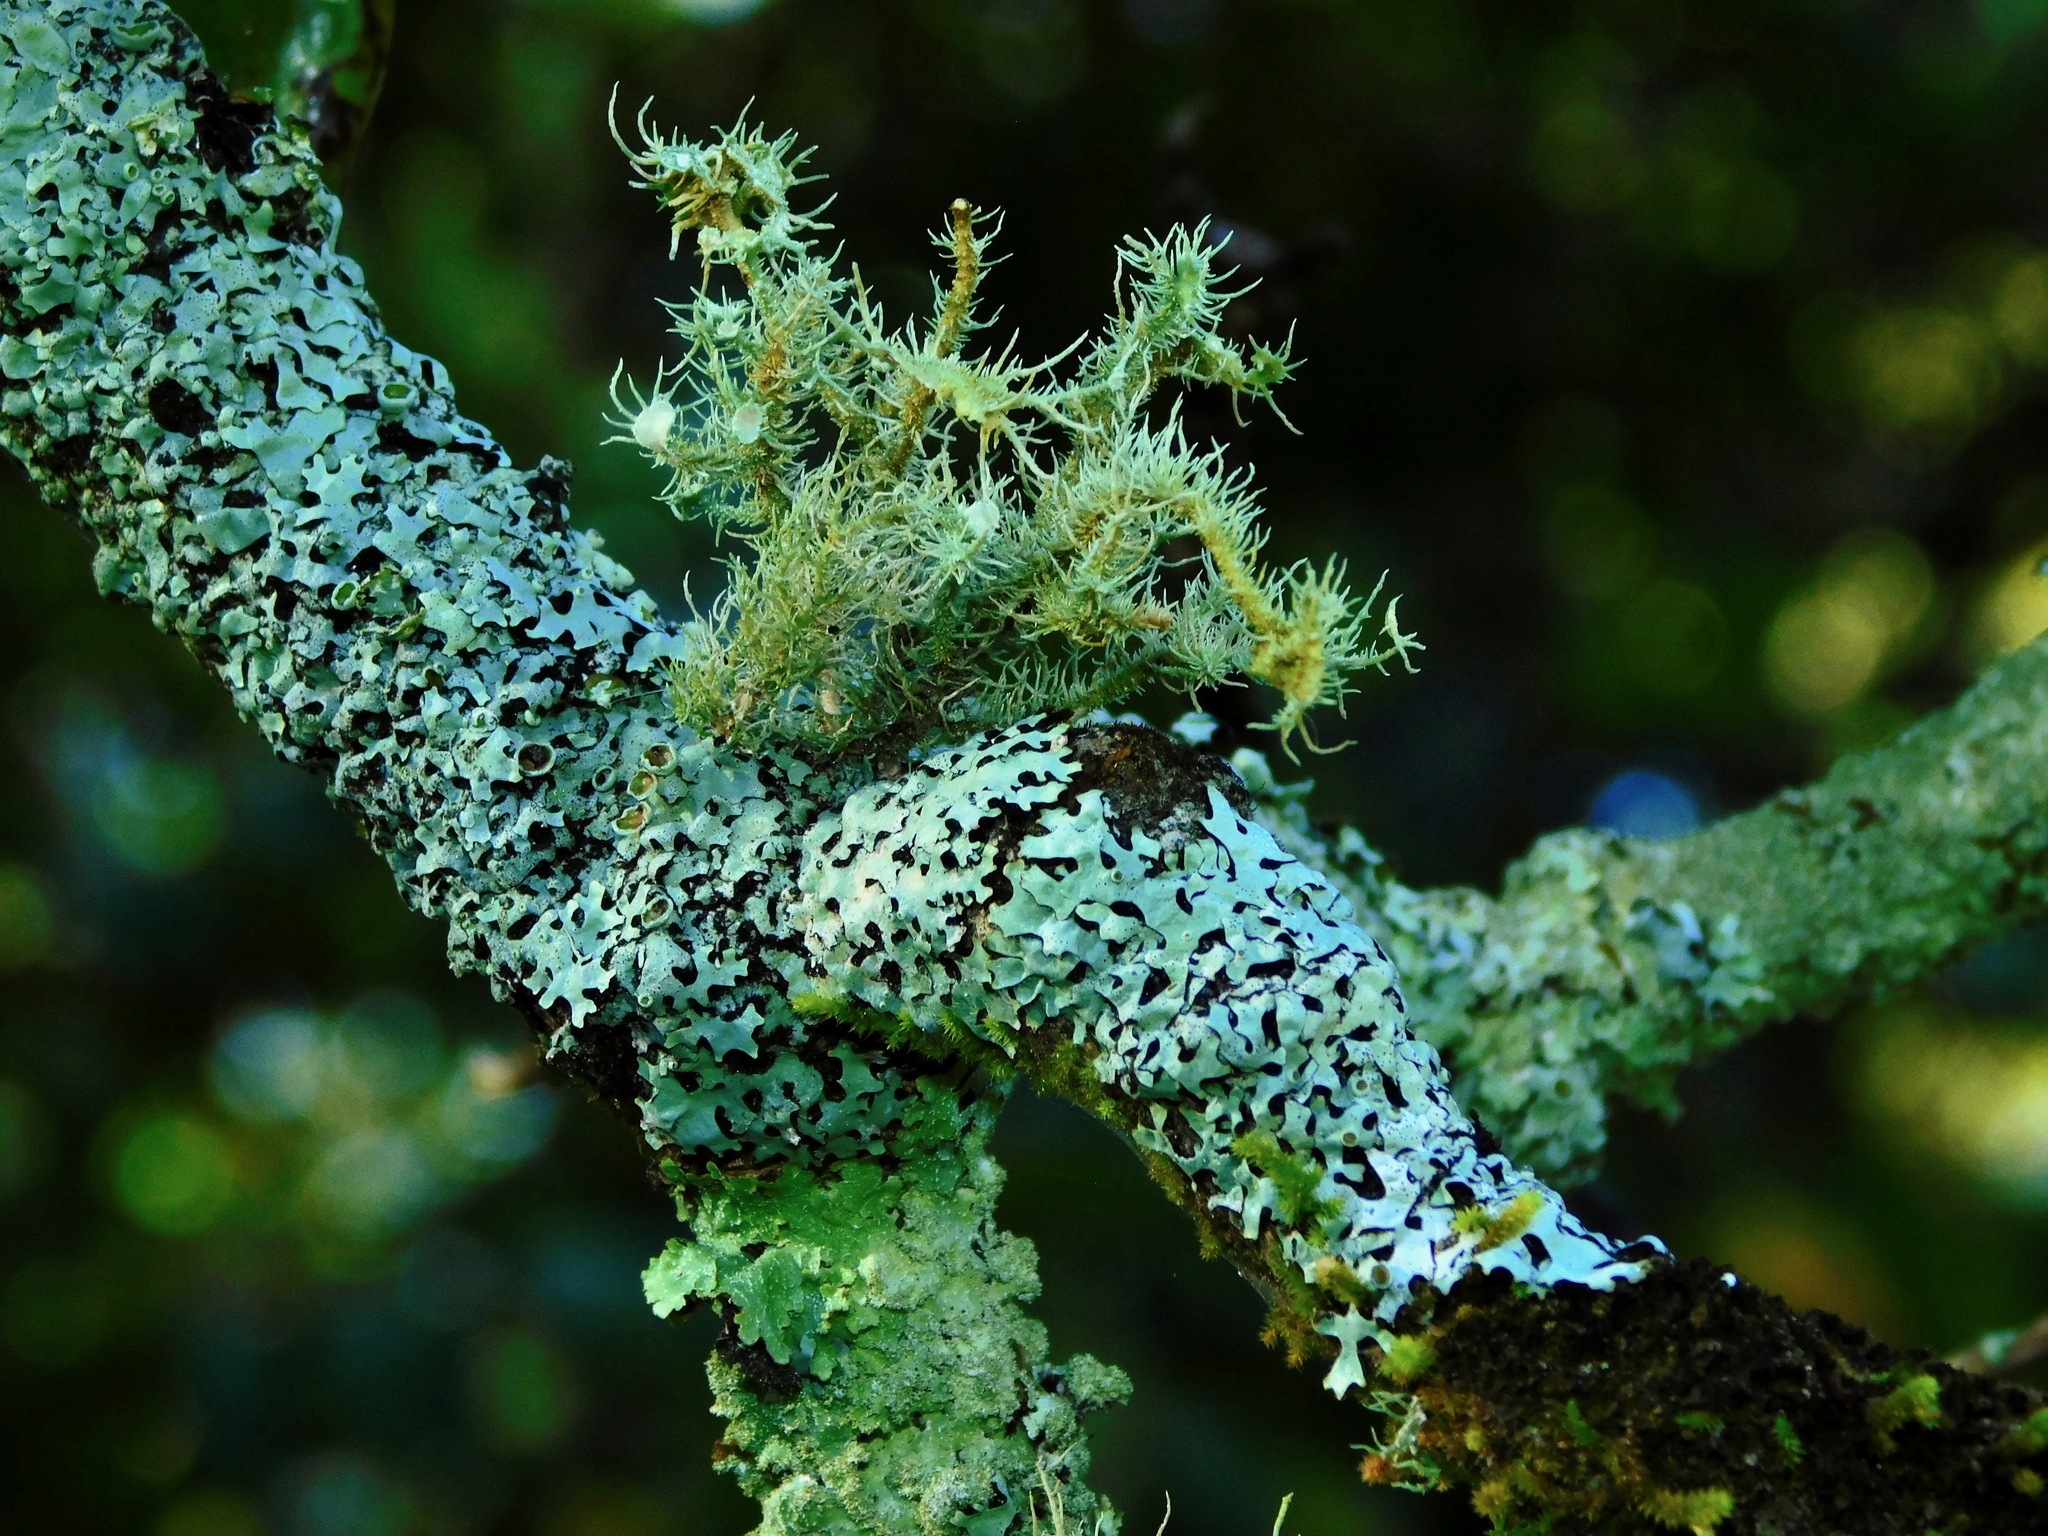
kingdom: Fungi
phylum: Ascomycota
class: Lecanoromycetes
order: Lecanorales
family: Parmeliaceae
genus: Usnea
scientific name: Usnea strigosa
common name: Bushy beard lichen
